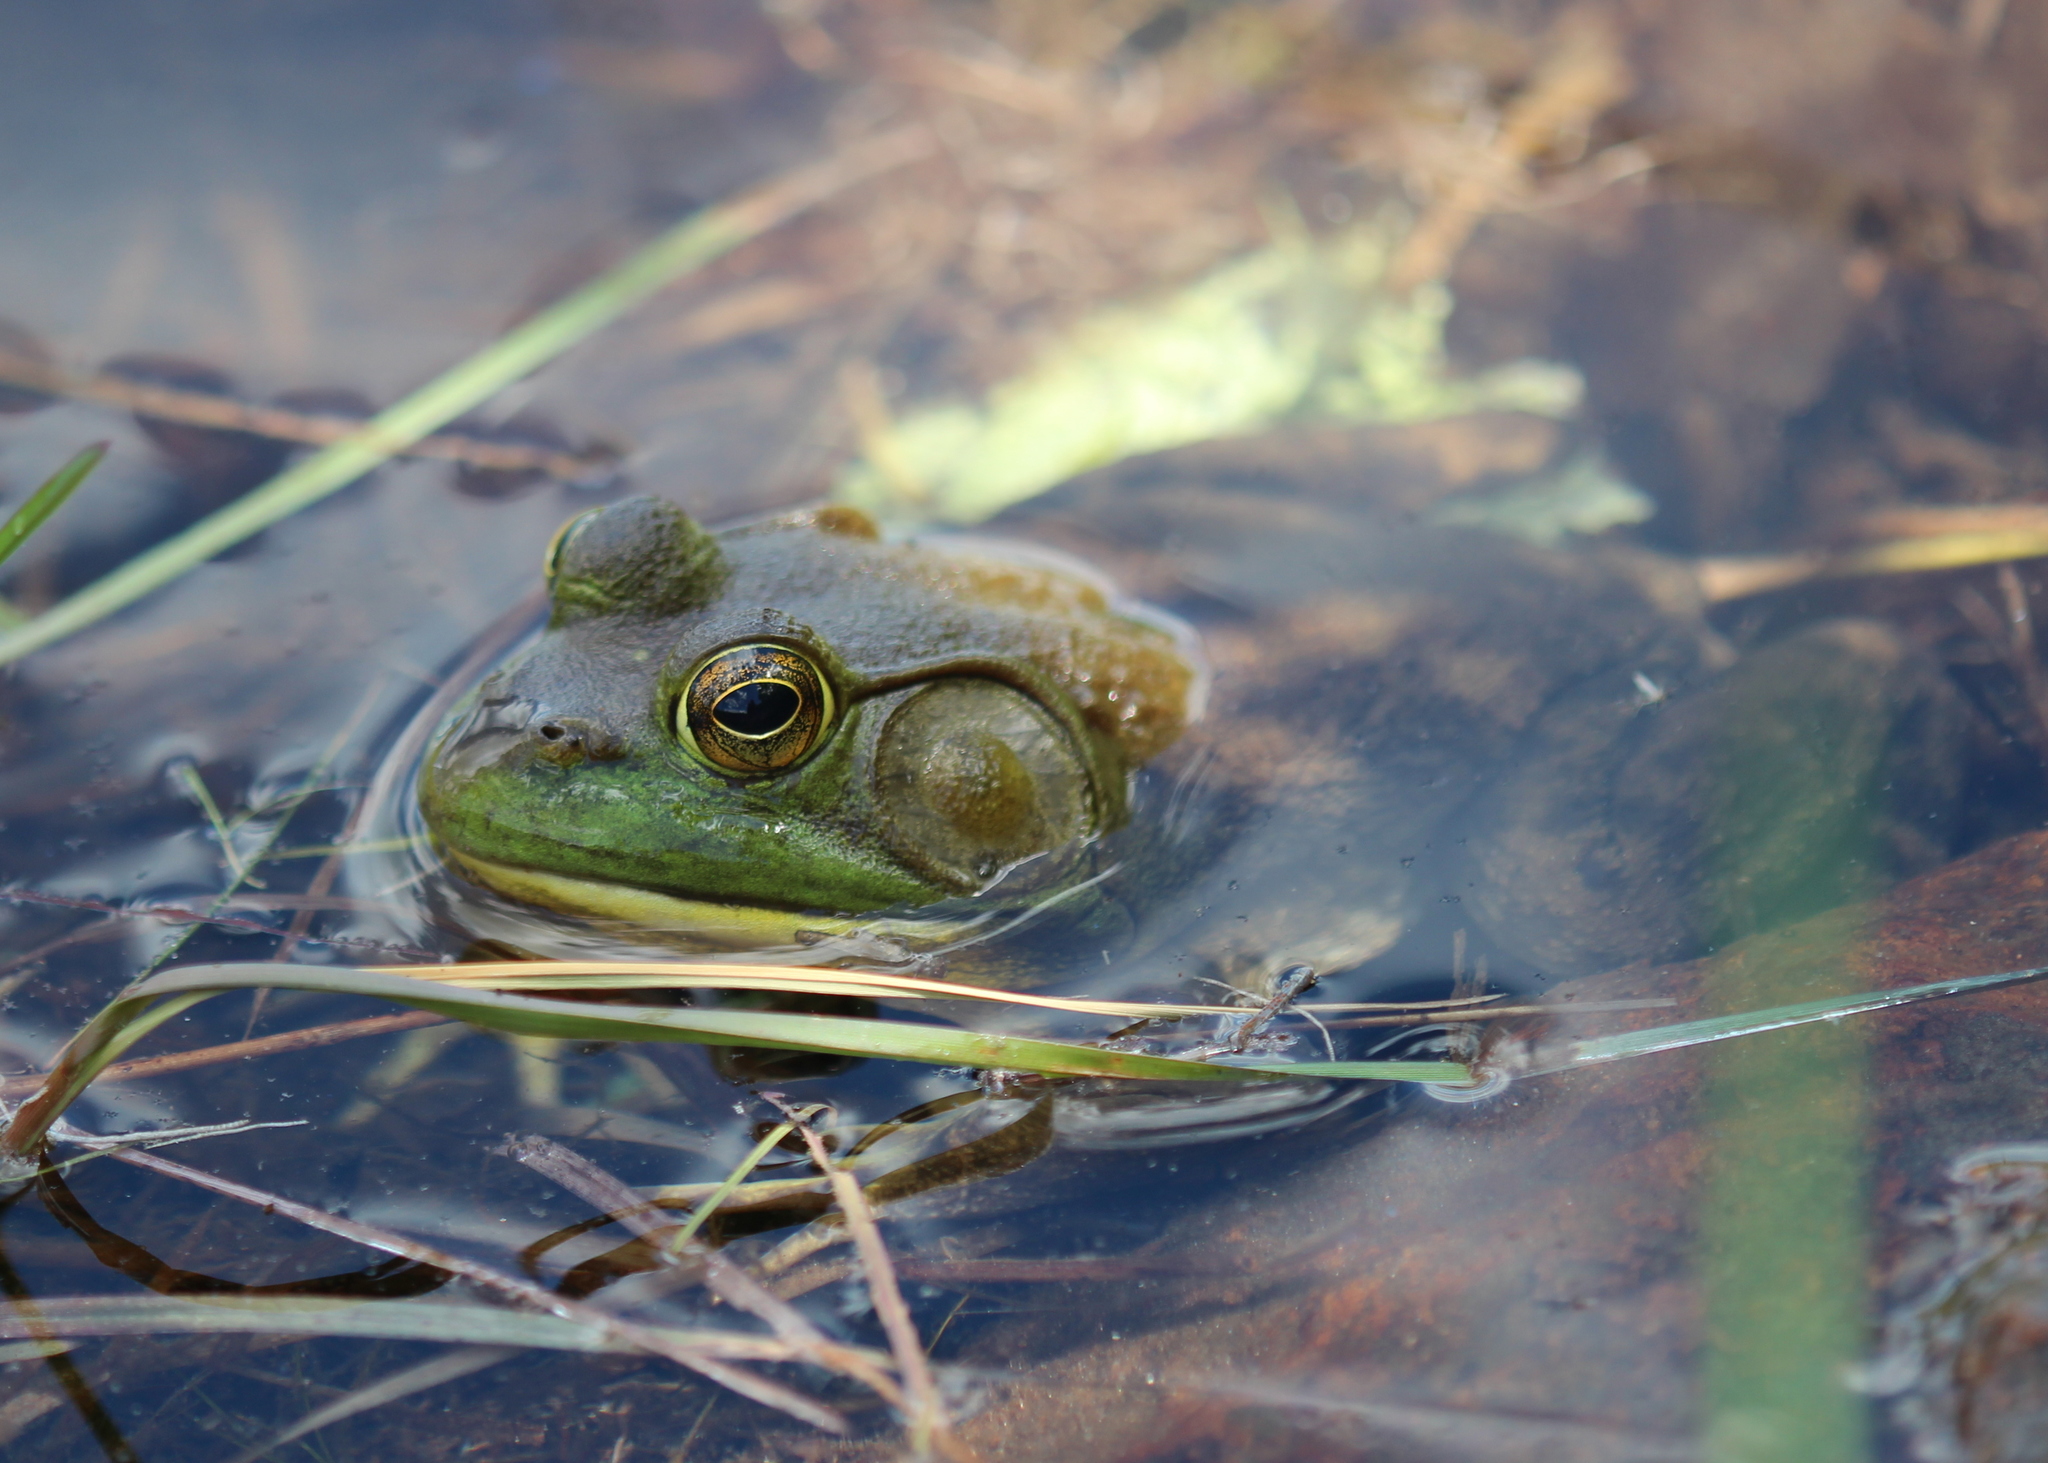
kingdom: Animalia
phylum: Chordata
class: Amphibia
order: Anura
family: Ranidae
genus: Lithobates
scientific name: Lithobates catesbeianus
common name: American bullfrog
